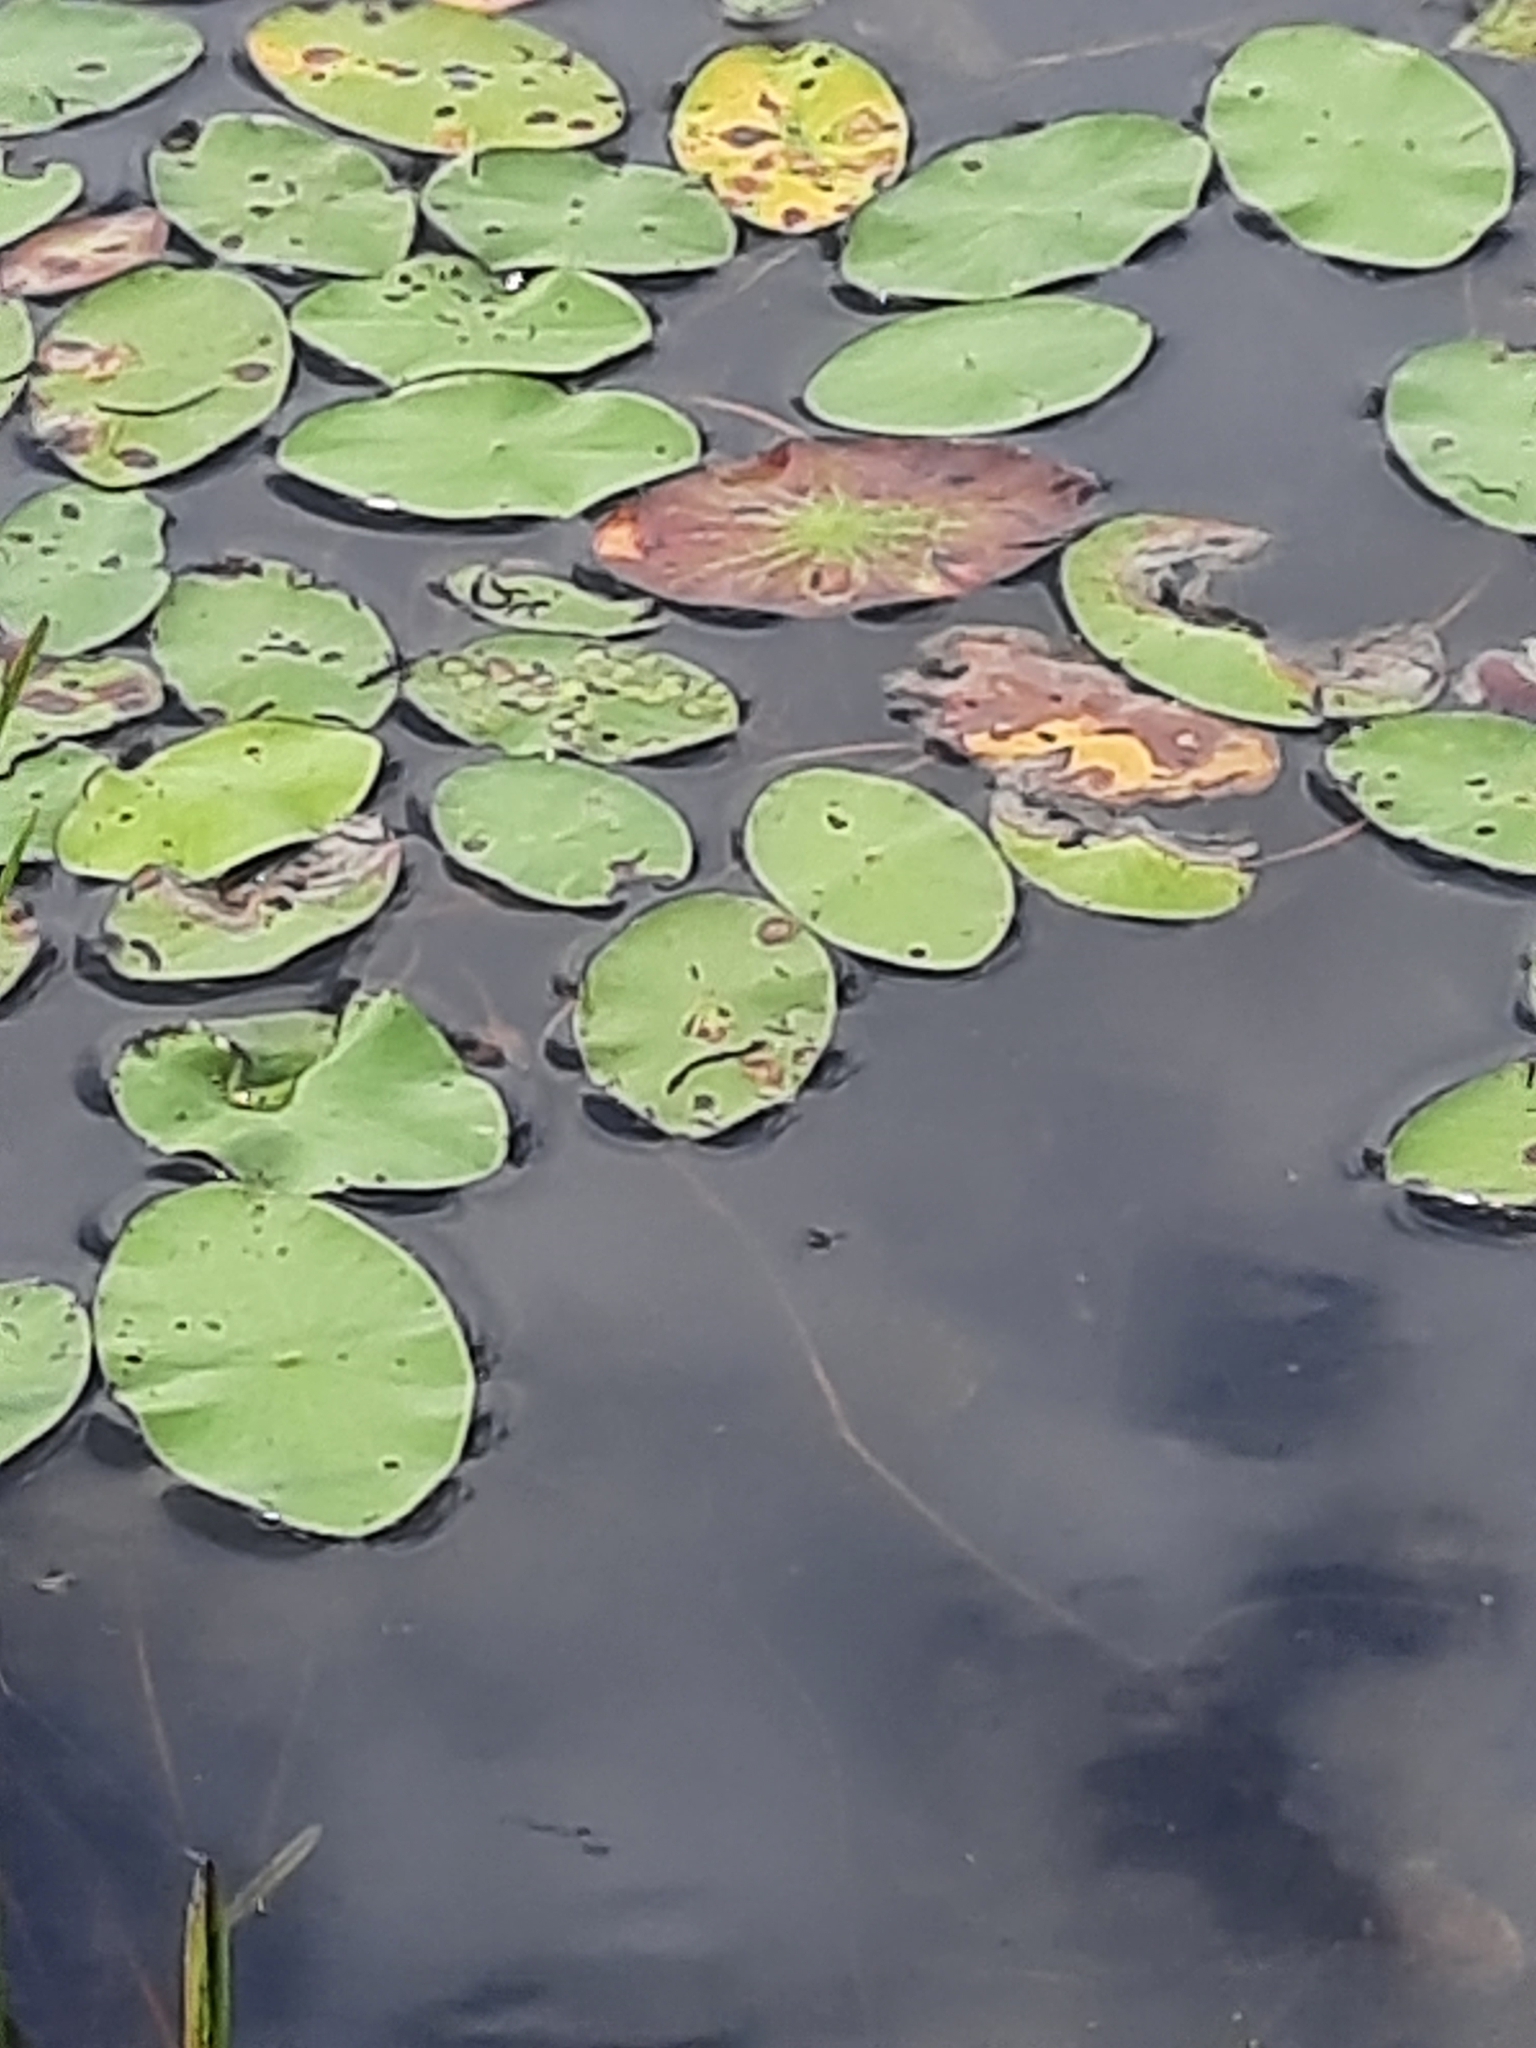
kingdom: Plantae
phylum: Tracheophyta
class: Magnoliopsida
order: Nymphaeales
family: Cabombaceae
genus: Brasenia
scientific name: Brasenia schreberi
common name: Water-shield
